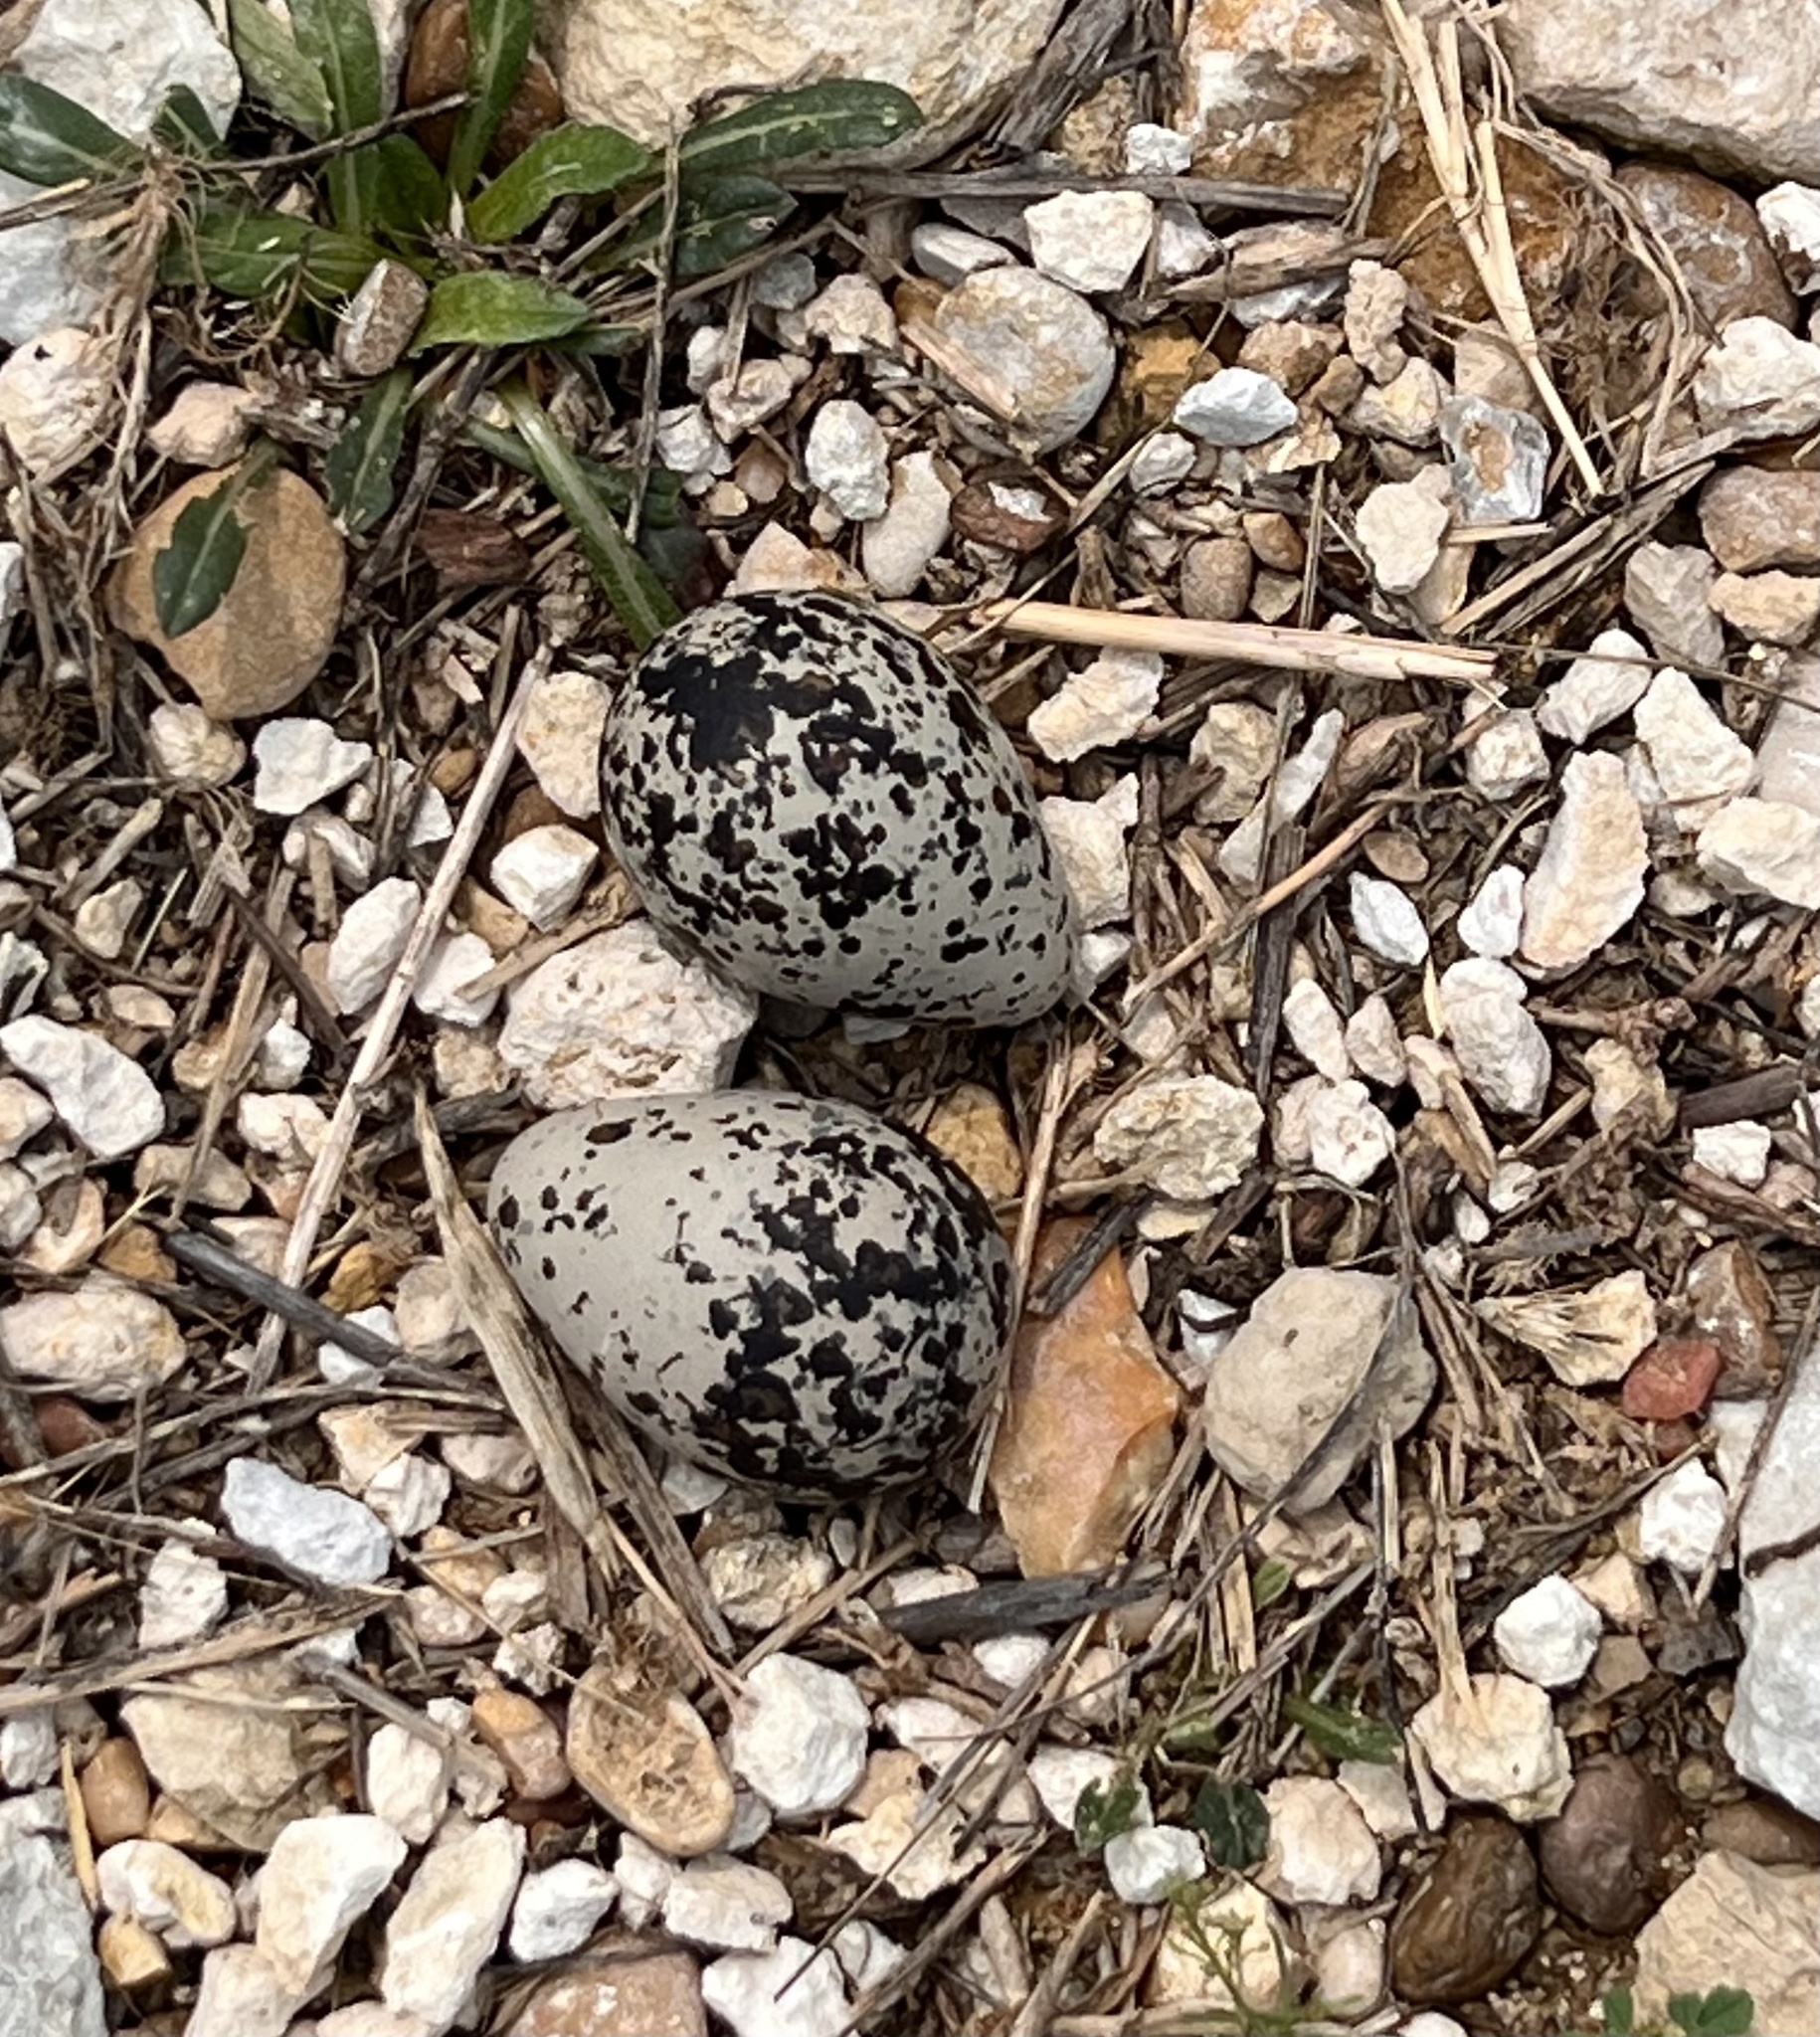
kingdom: Animalia
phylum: Chordata
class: Aves
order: Charadriiformes
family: Charadriidae
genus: Charadrius
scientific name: Charadrius vociferus
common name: Killdeer
